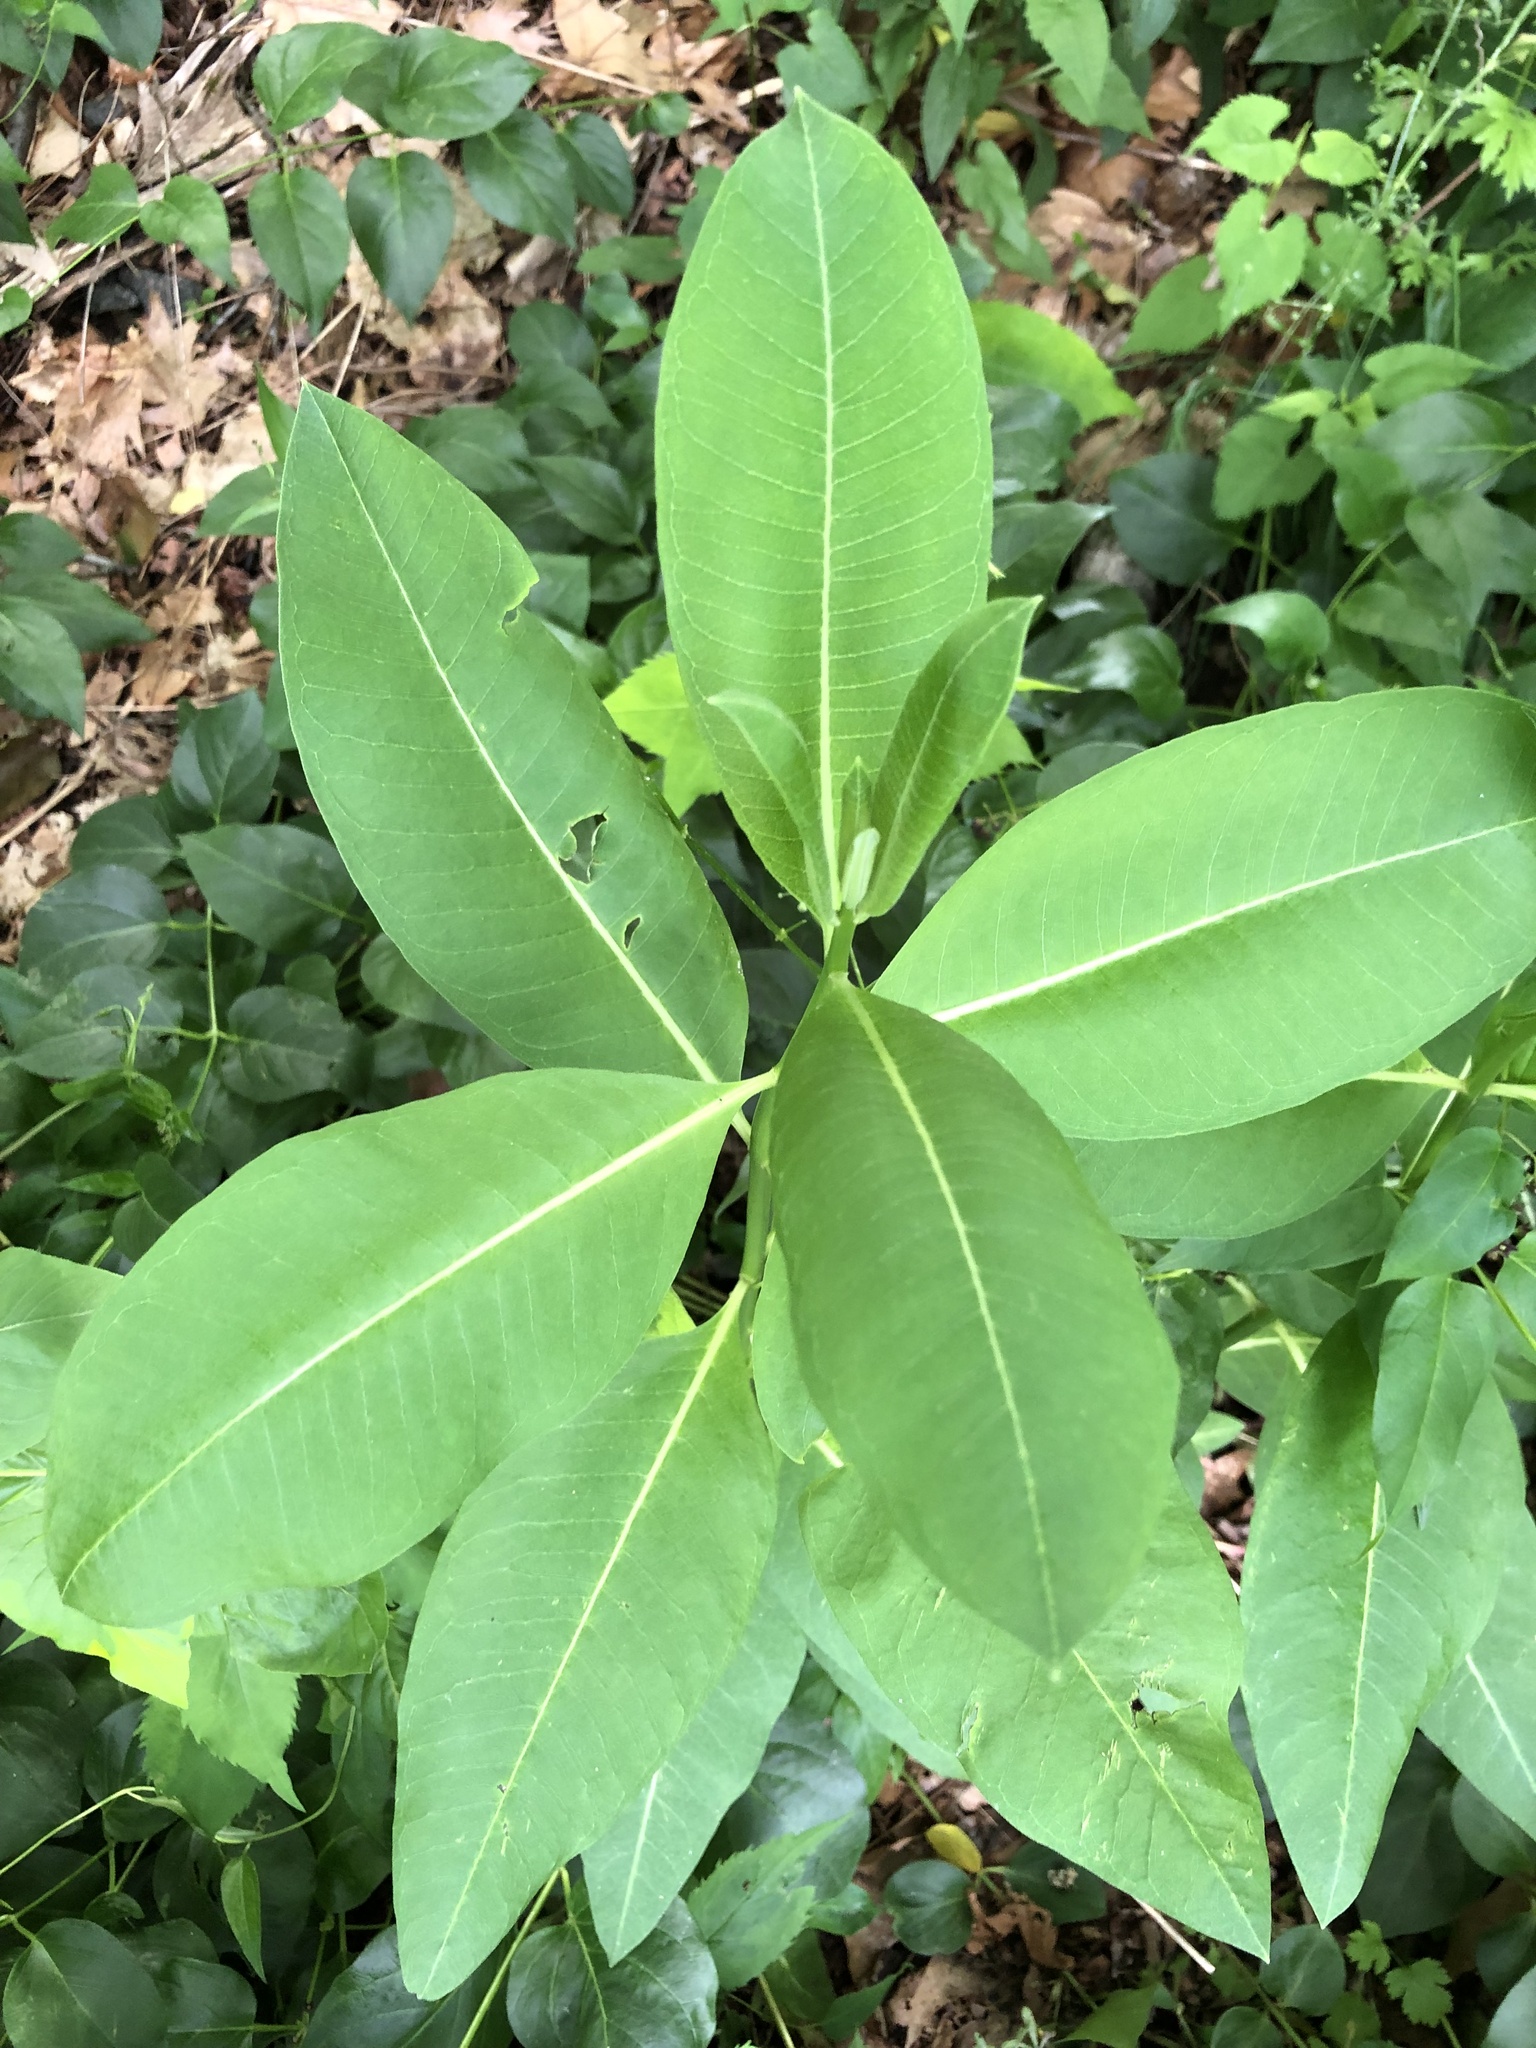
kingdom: Plantae
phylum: Tracheophyta
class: Magnoliopsida
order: Gentianales
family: Apocynaceae
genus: Asclepias
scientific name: Asclepias syriaca
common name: Common milkweed
